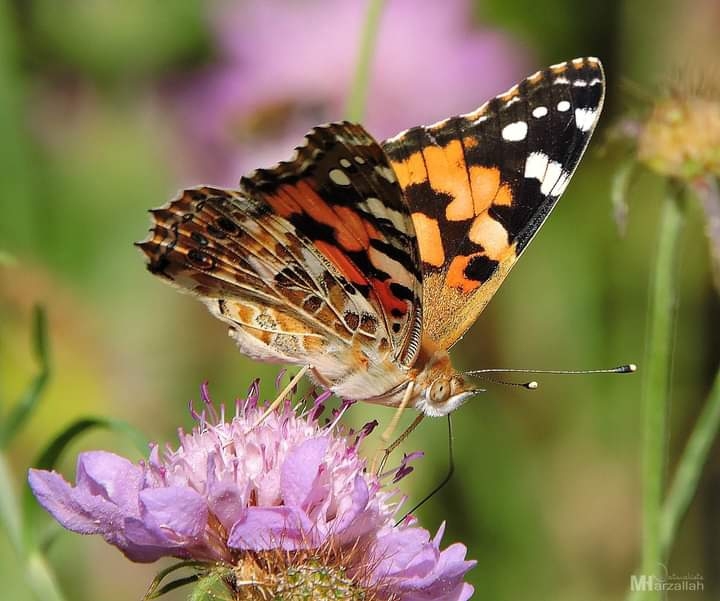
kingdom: Animalia
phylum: Arthropoda
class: Insecta
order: Lepidoptera
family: Nymphalidae
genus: Vanessa
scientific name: Vanessa cardui
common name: Painted lady
